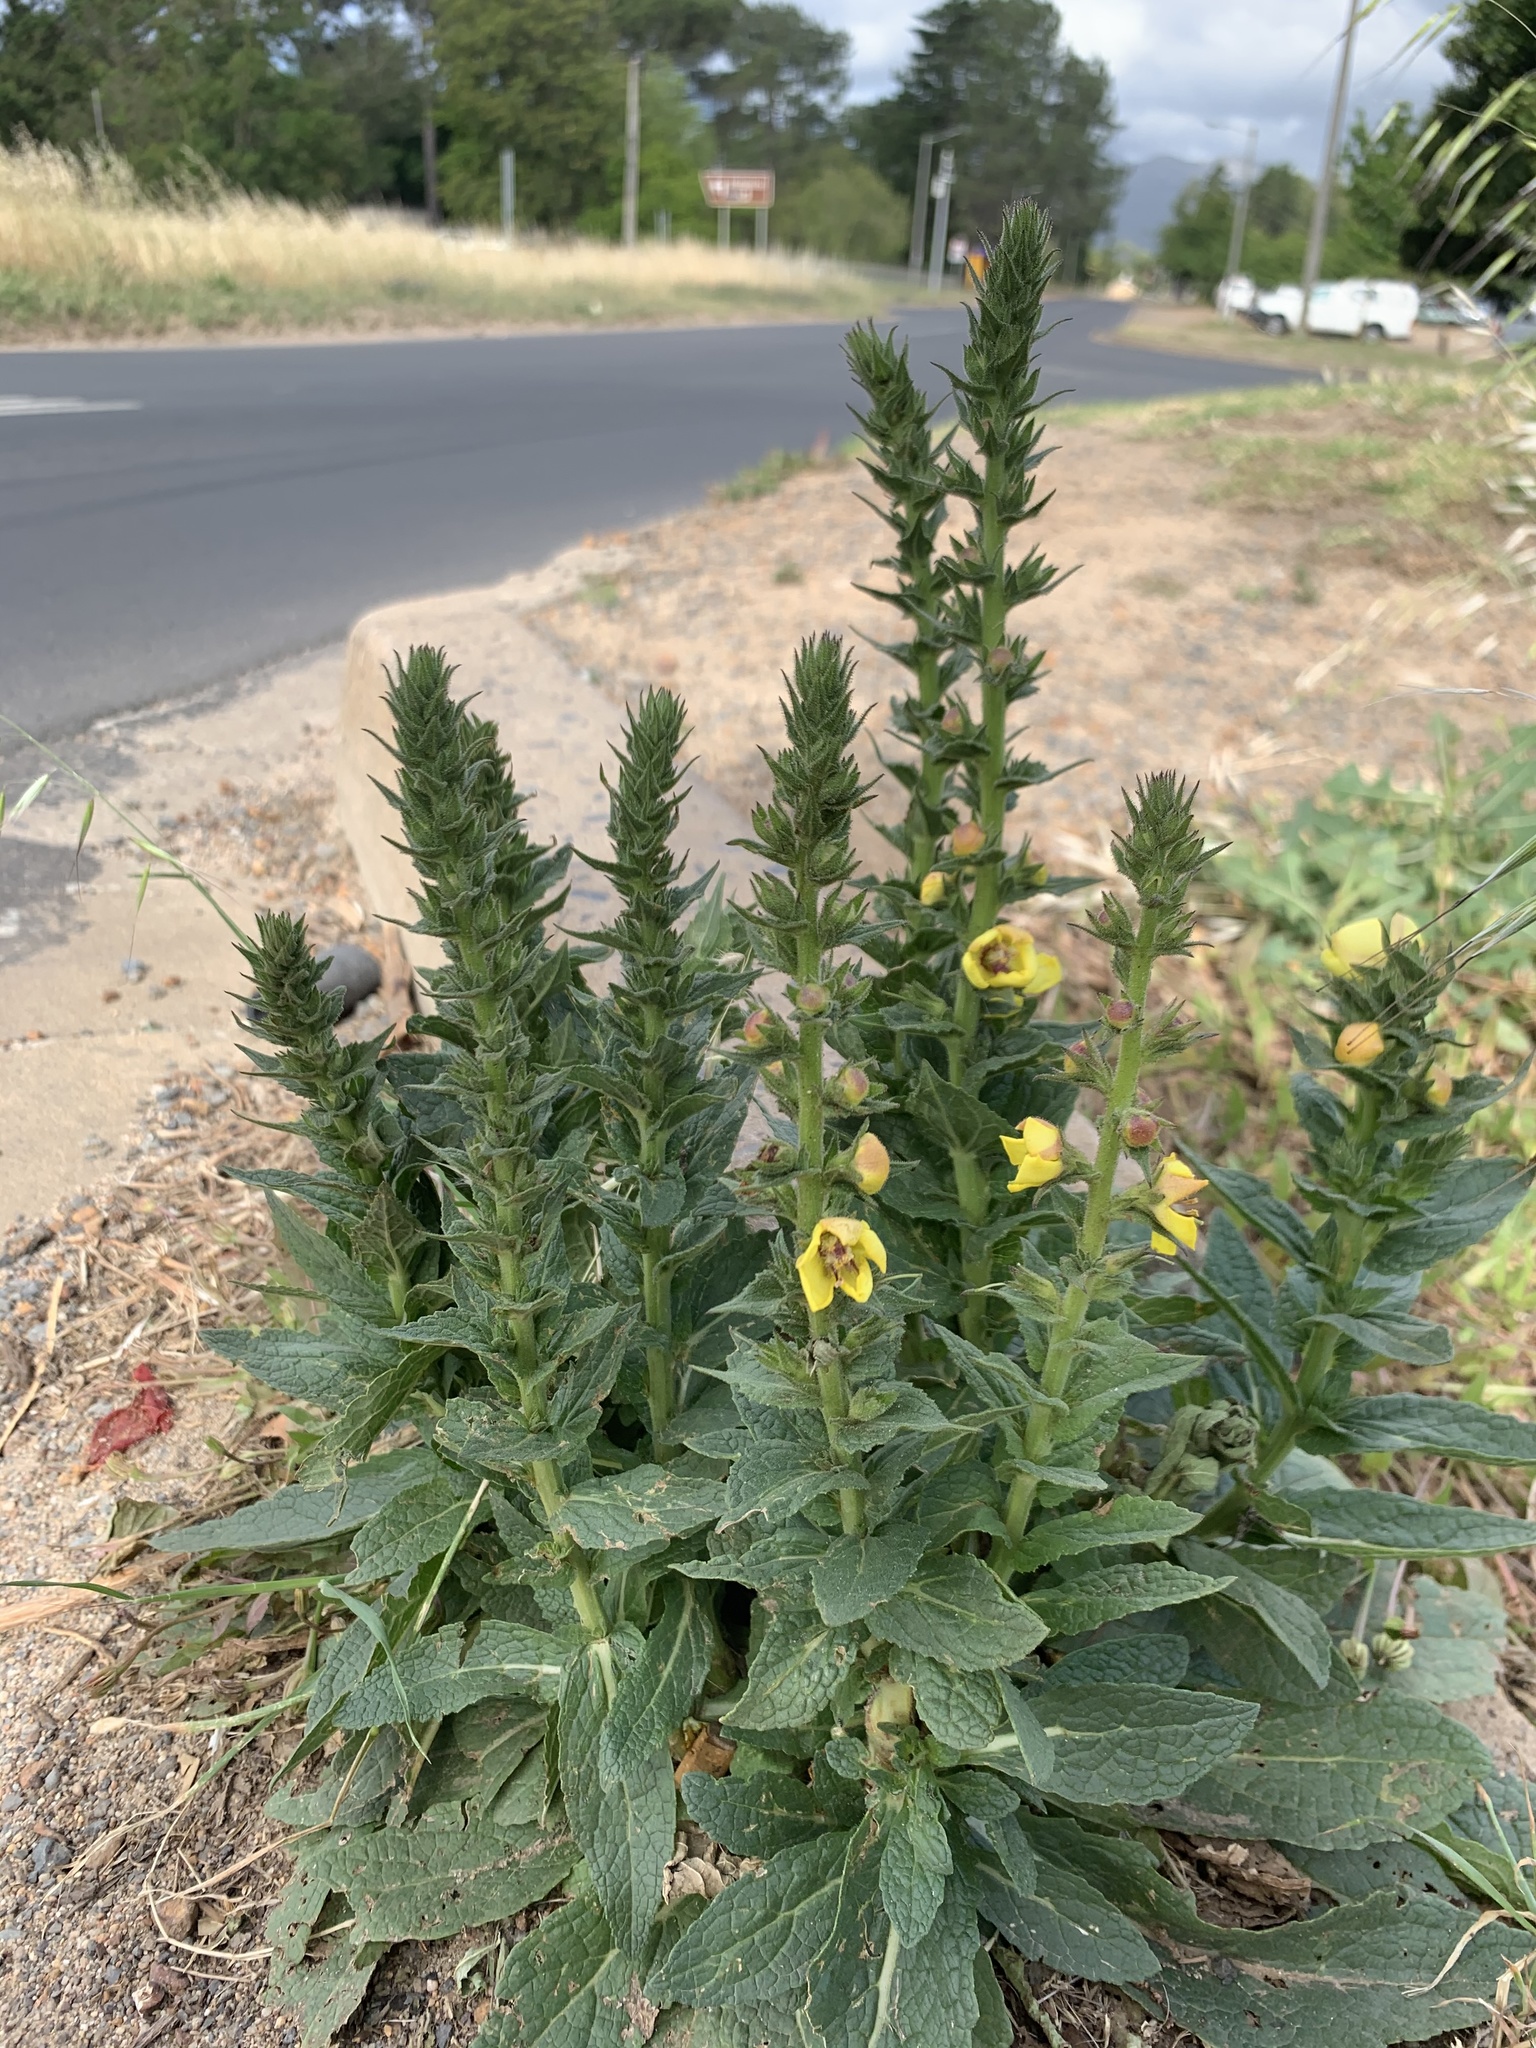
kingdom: Plantae
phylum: Tracheophyta
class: Magnoliopsida
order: Lamiales
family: Scrophulariaceae
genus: Verbascum
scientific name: Verbascum virgatum
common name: Twiggy mullein
